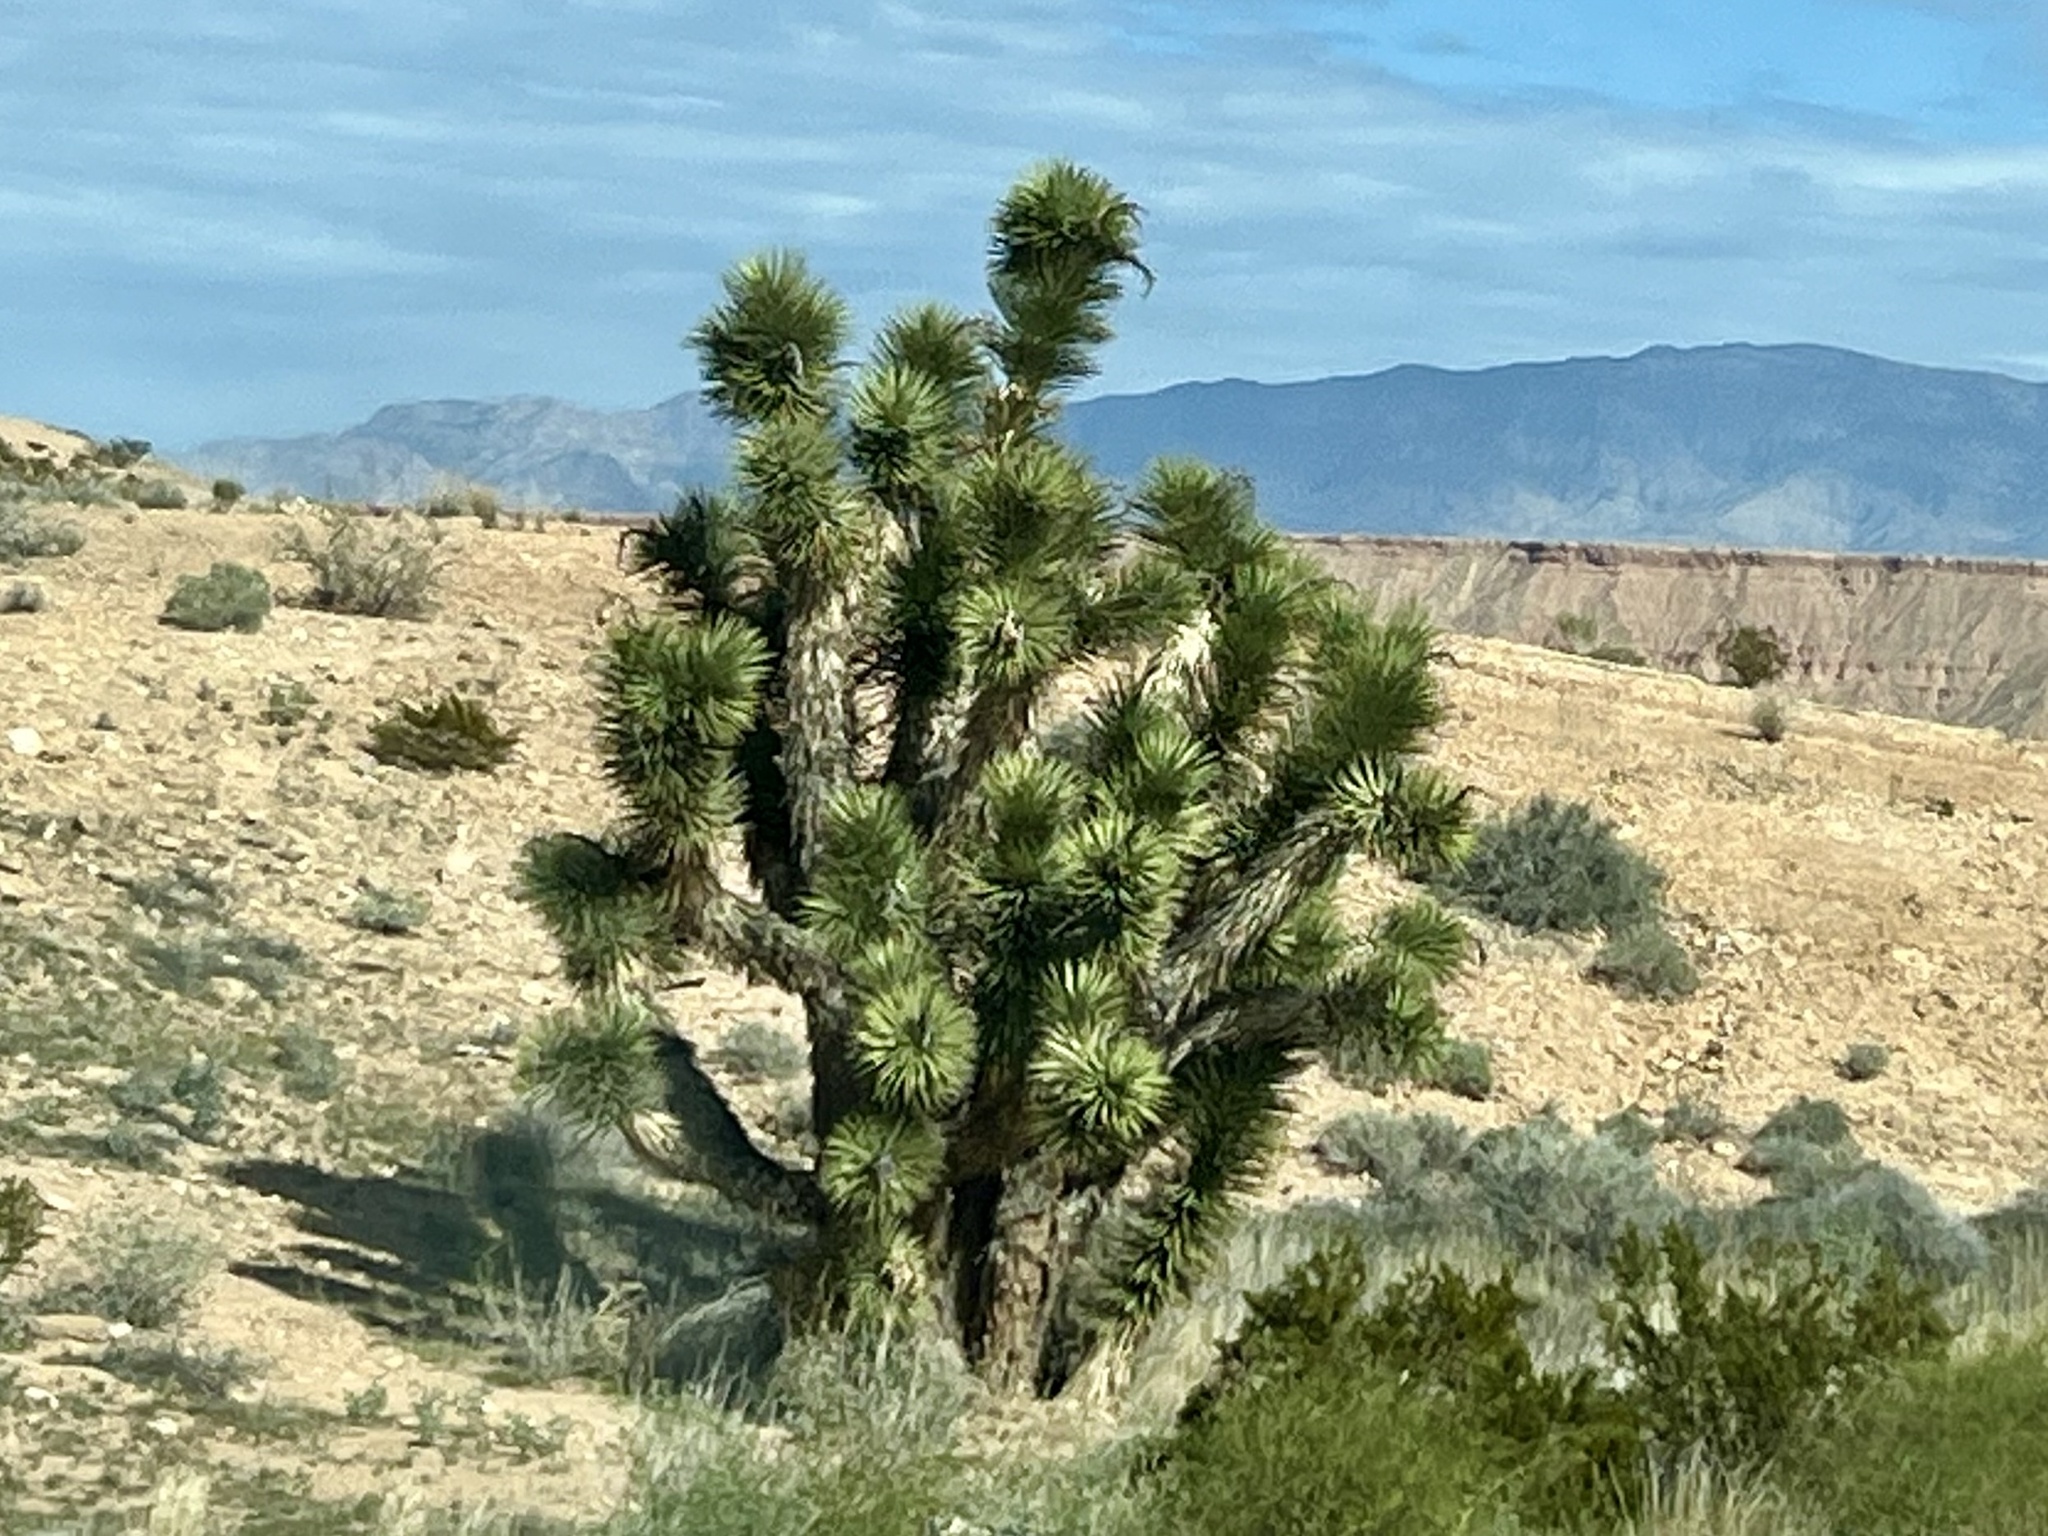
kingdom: Plantae
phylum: Tracheophyta
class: Liliopsida
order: Asparagales
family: Asparagaceae
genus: Yucca
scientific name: Yucca brevifolia
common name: Joshua tree
